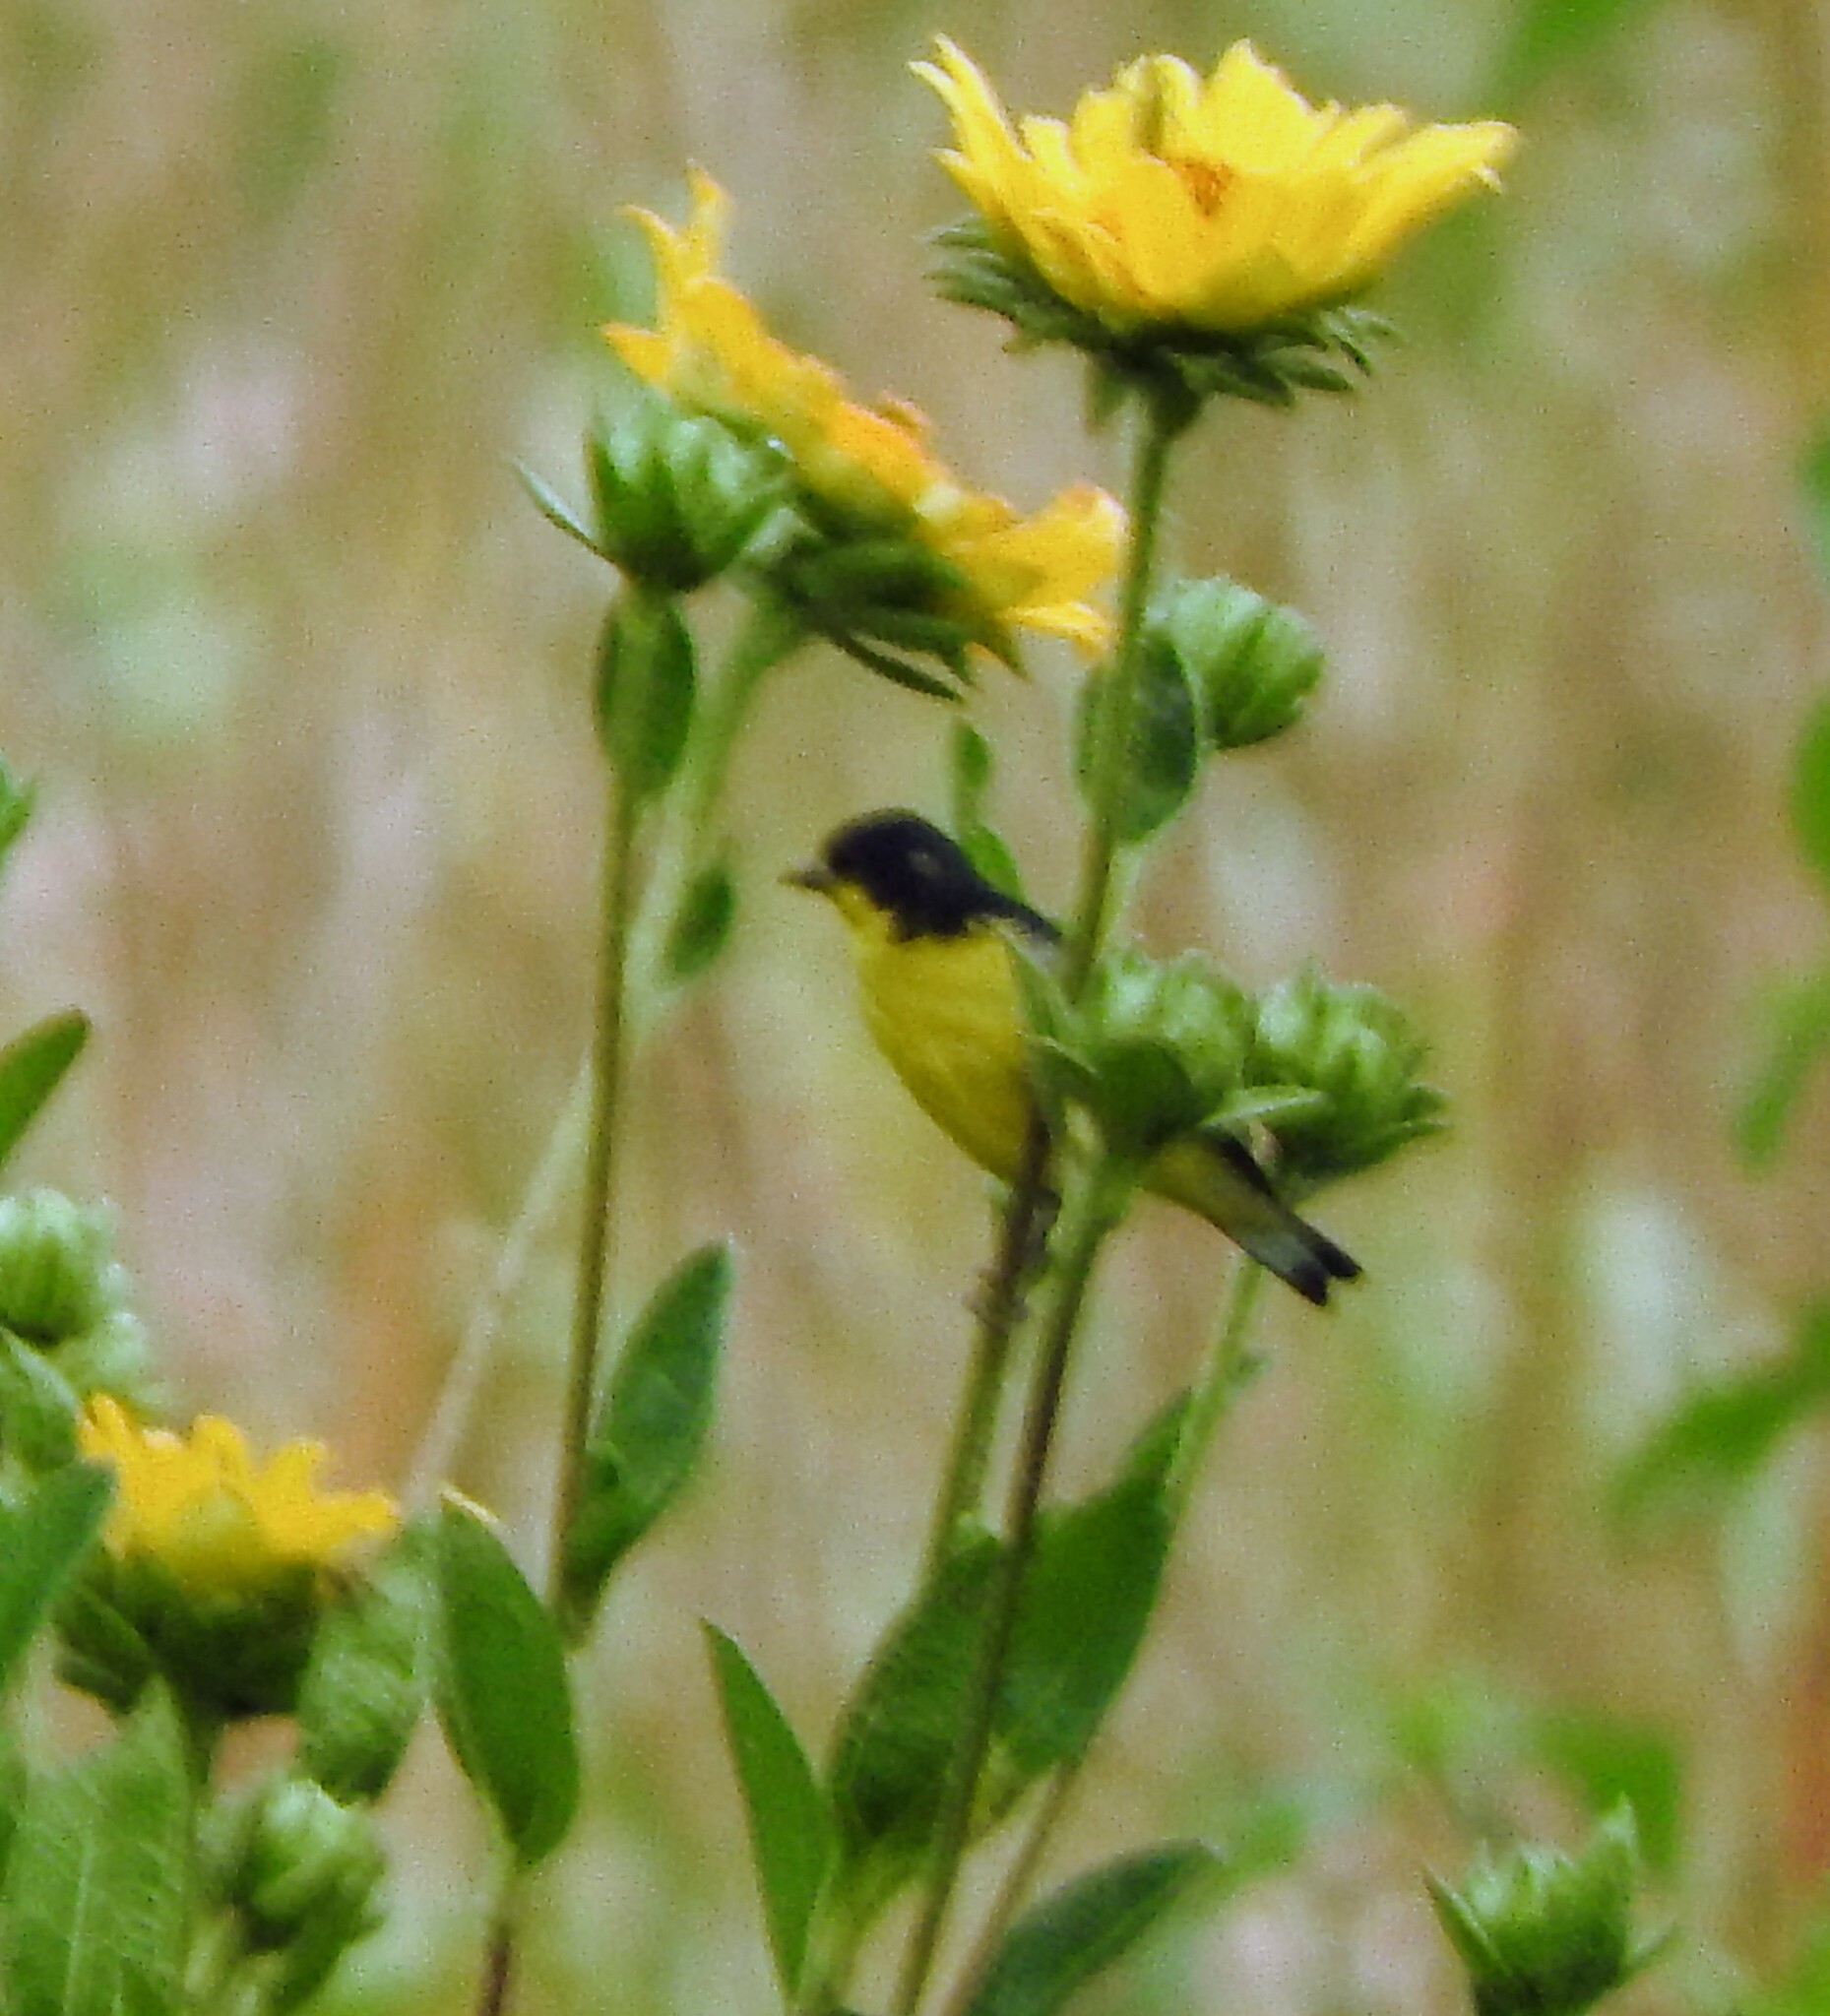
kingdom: Animalia
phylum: Chordata
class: Aves
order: Passeriformes
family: Fringillidae
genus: Spinus
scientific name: Spinus psaltria
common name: Lesser goldfinch
